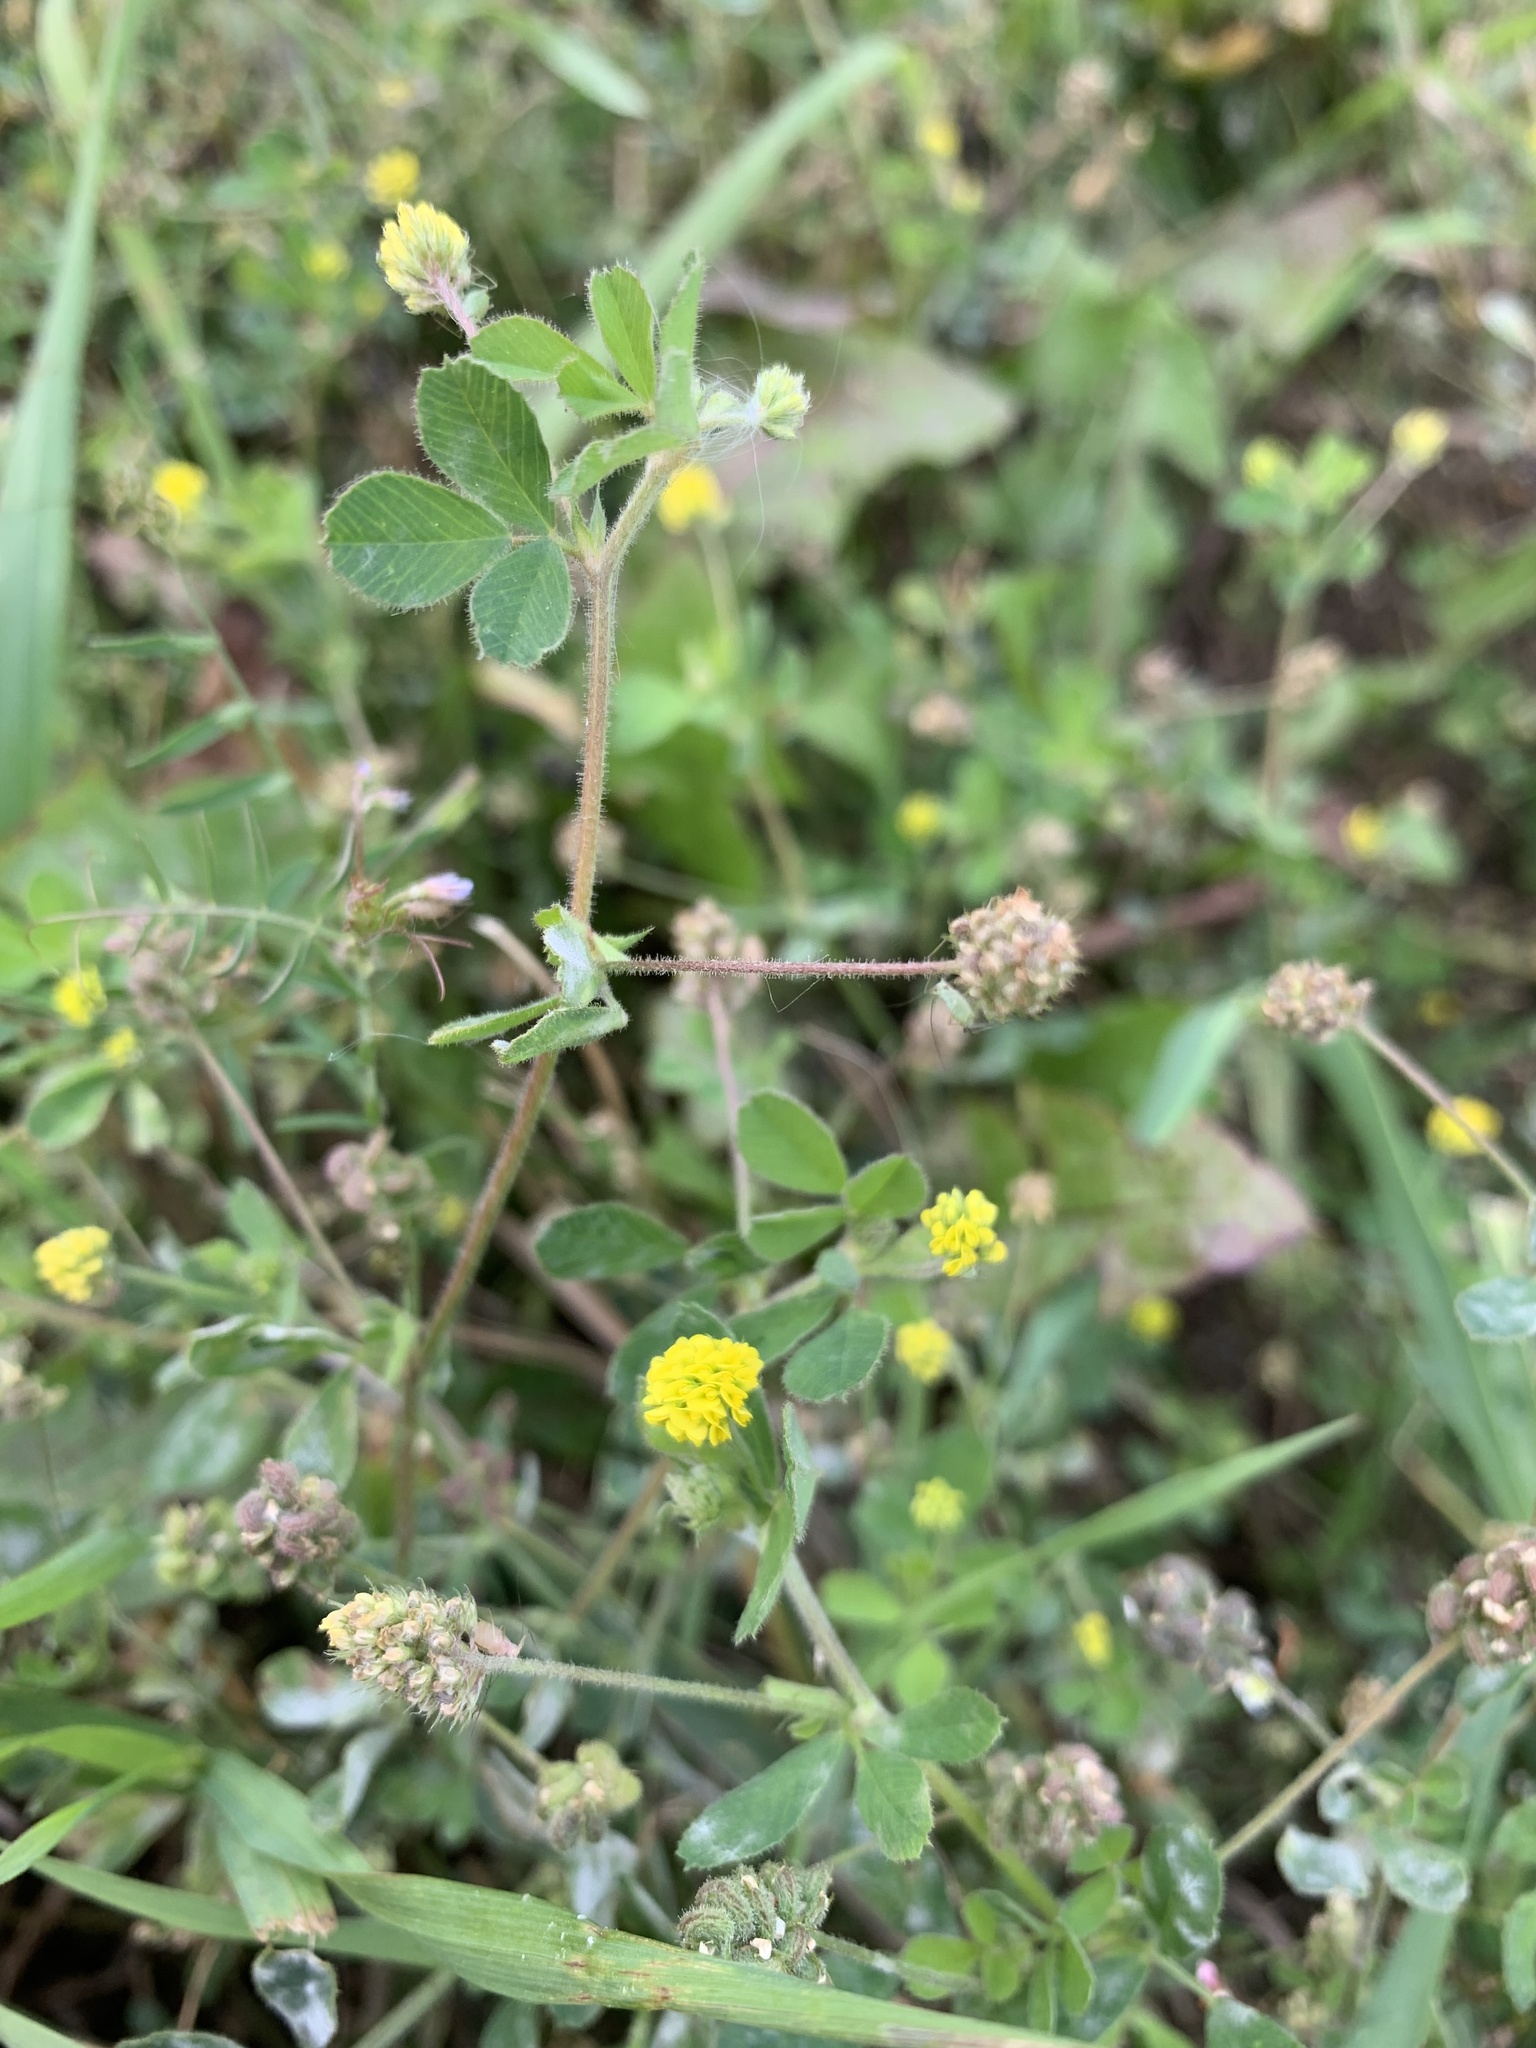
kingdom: Plantae
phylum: Tracheophyta
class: Magnoliopsida
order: Fabales
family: Fabaceae
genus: Medicago
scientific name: Medicago lupulina
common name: Black medick
